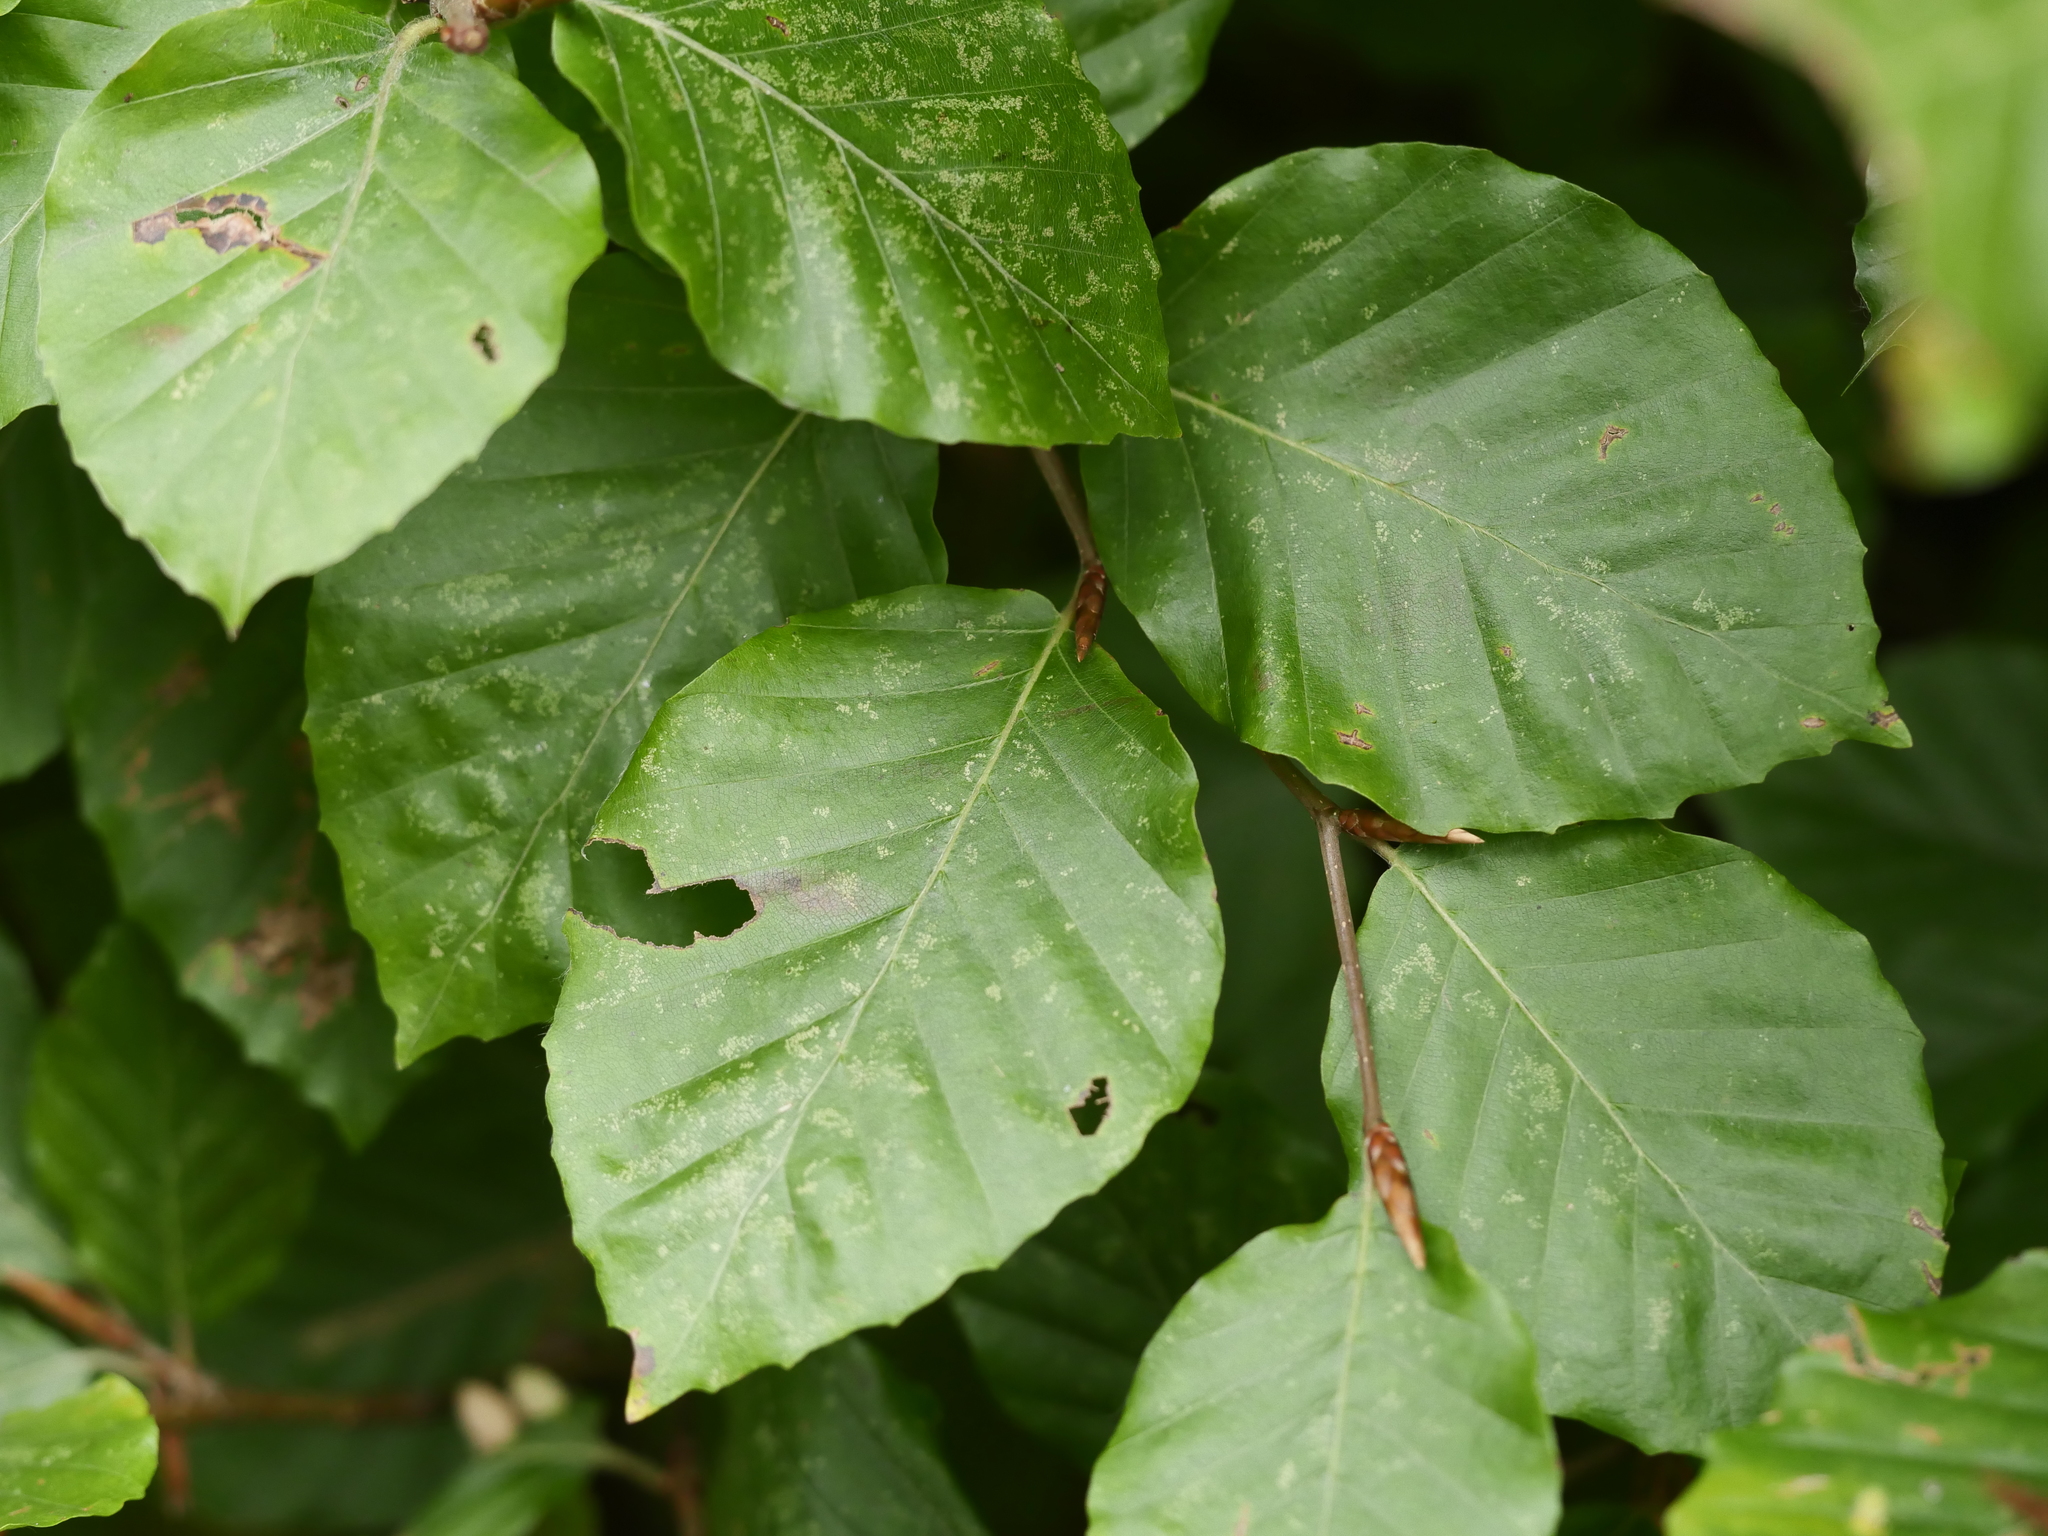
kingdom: Plantae
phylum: Tracheophyta
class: Magnoliopsida
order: Fagales
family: Fagaceae
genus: Fagus
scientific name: Fagus sylvatica
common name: Beech
